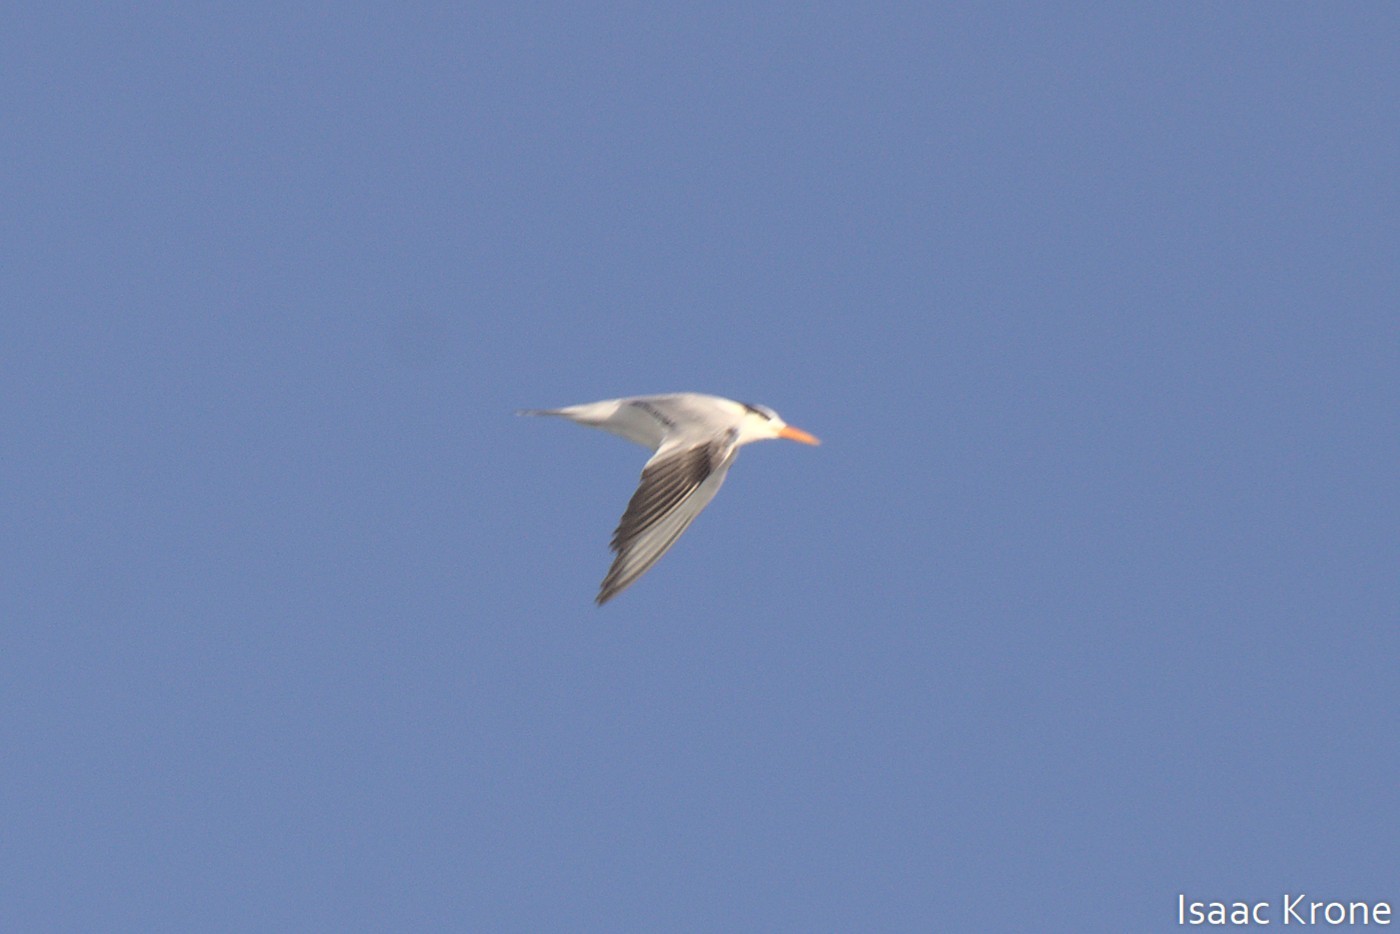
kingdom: Animalia
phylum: Chordata
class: Aves
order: Charadriiformes
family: Laridae
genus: Thalasseus
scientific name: Thalasseus maximus
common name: Royal tern
